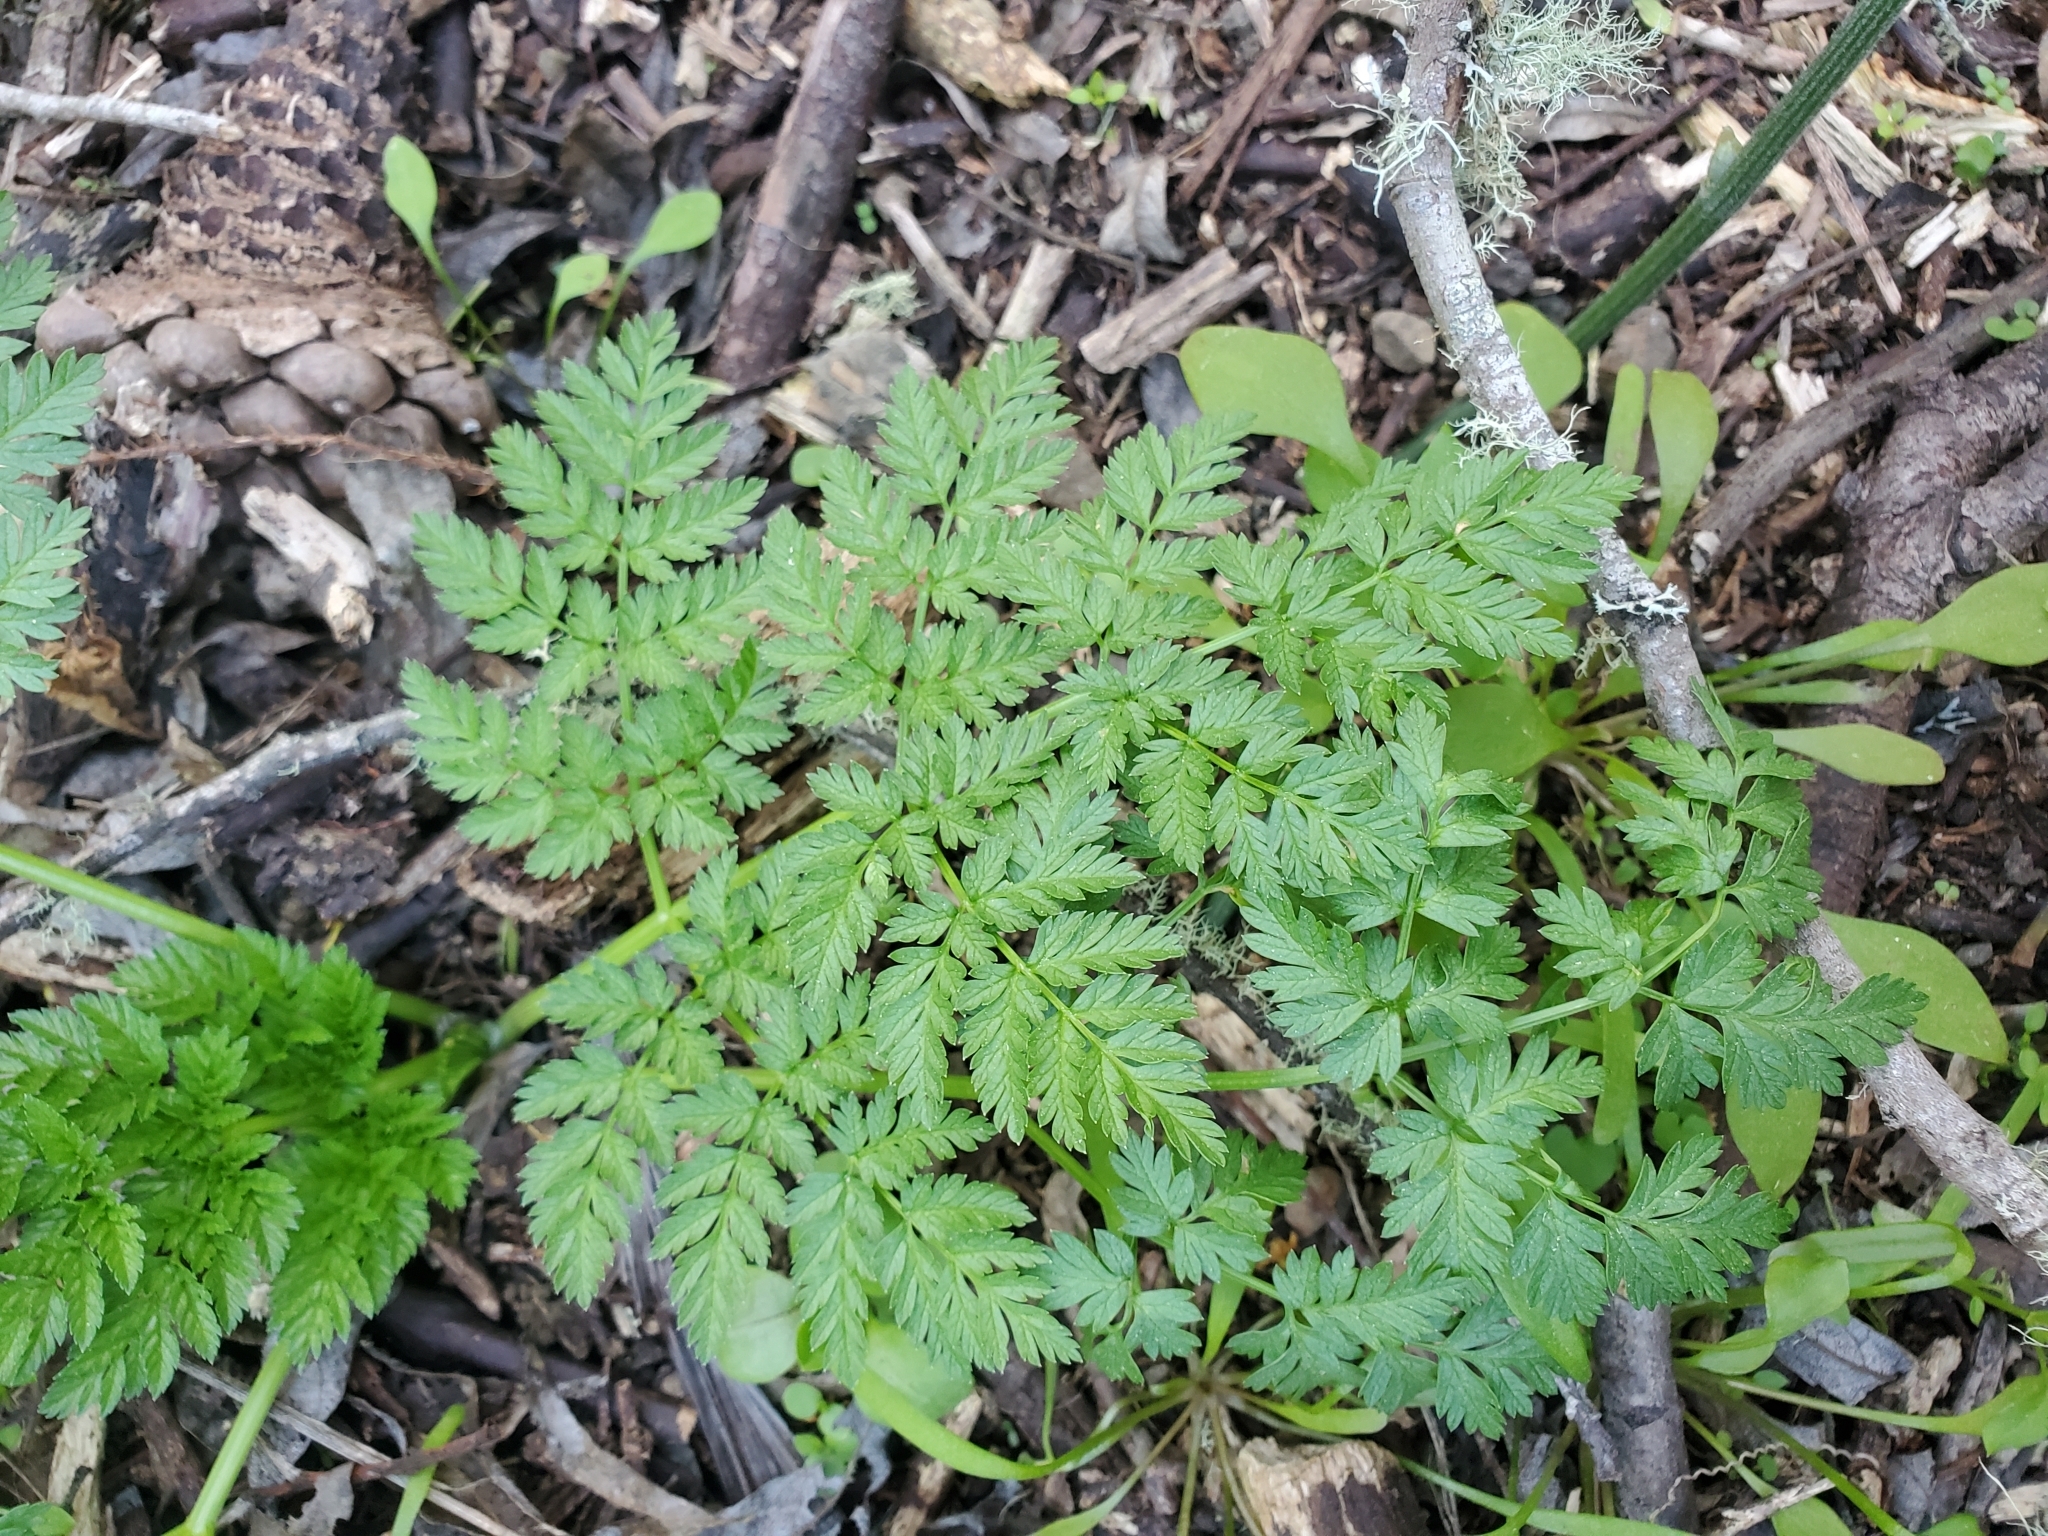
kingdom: Plantae
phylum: Tracheophyta
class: Magnoliopsida
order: Apiales
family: Apiaceae
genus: Conium
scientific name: Conium maculatum
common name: Hemlock
